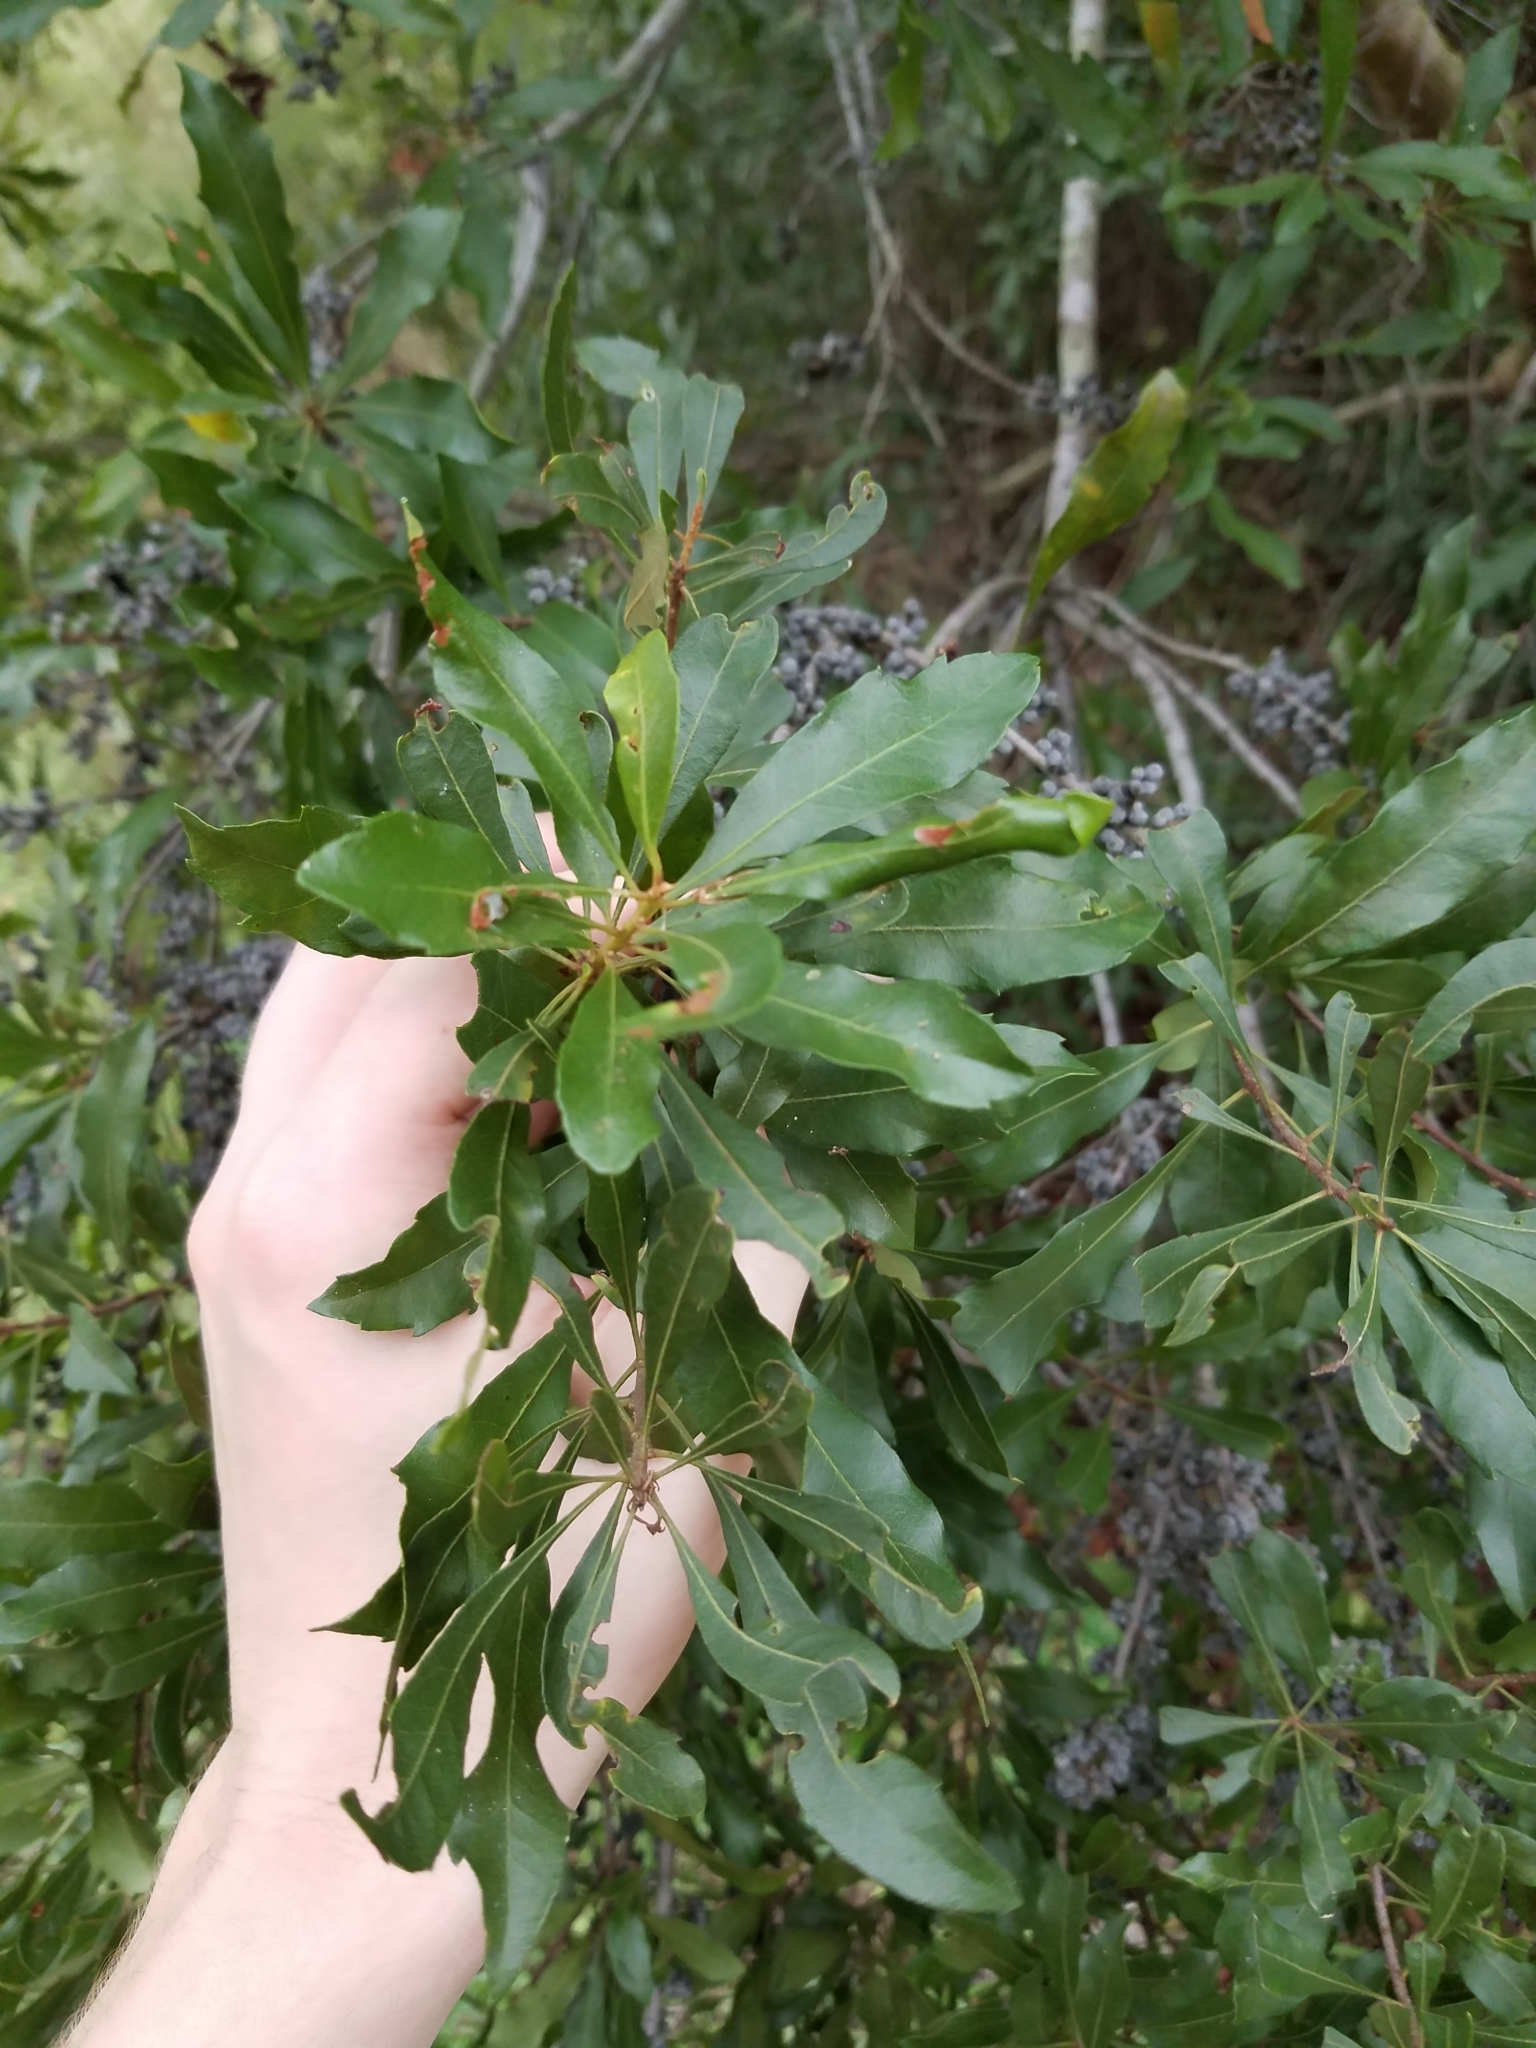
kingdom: Plantae
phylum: Tracheophyta
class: Magnoliopsida
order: Fagales
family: Myricaceae
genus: Morella
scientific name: Morella cerifera
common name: Wax myrtle
